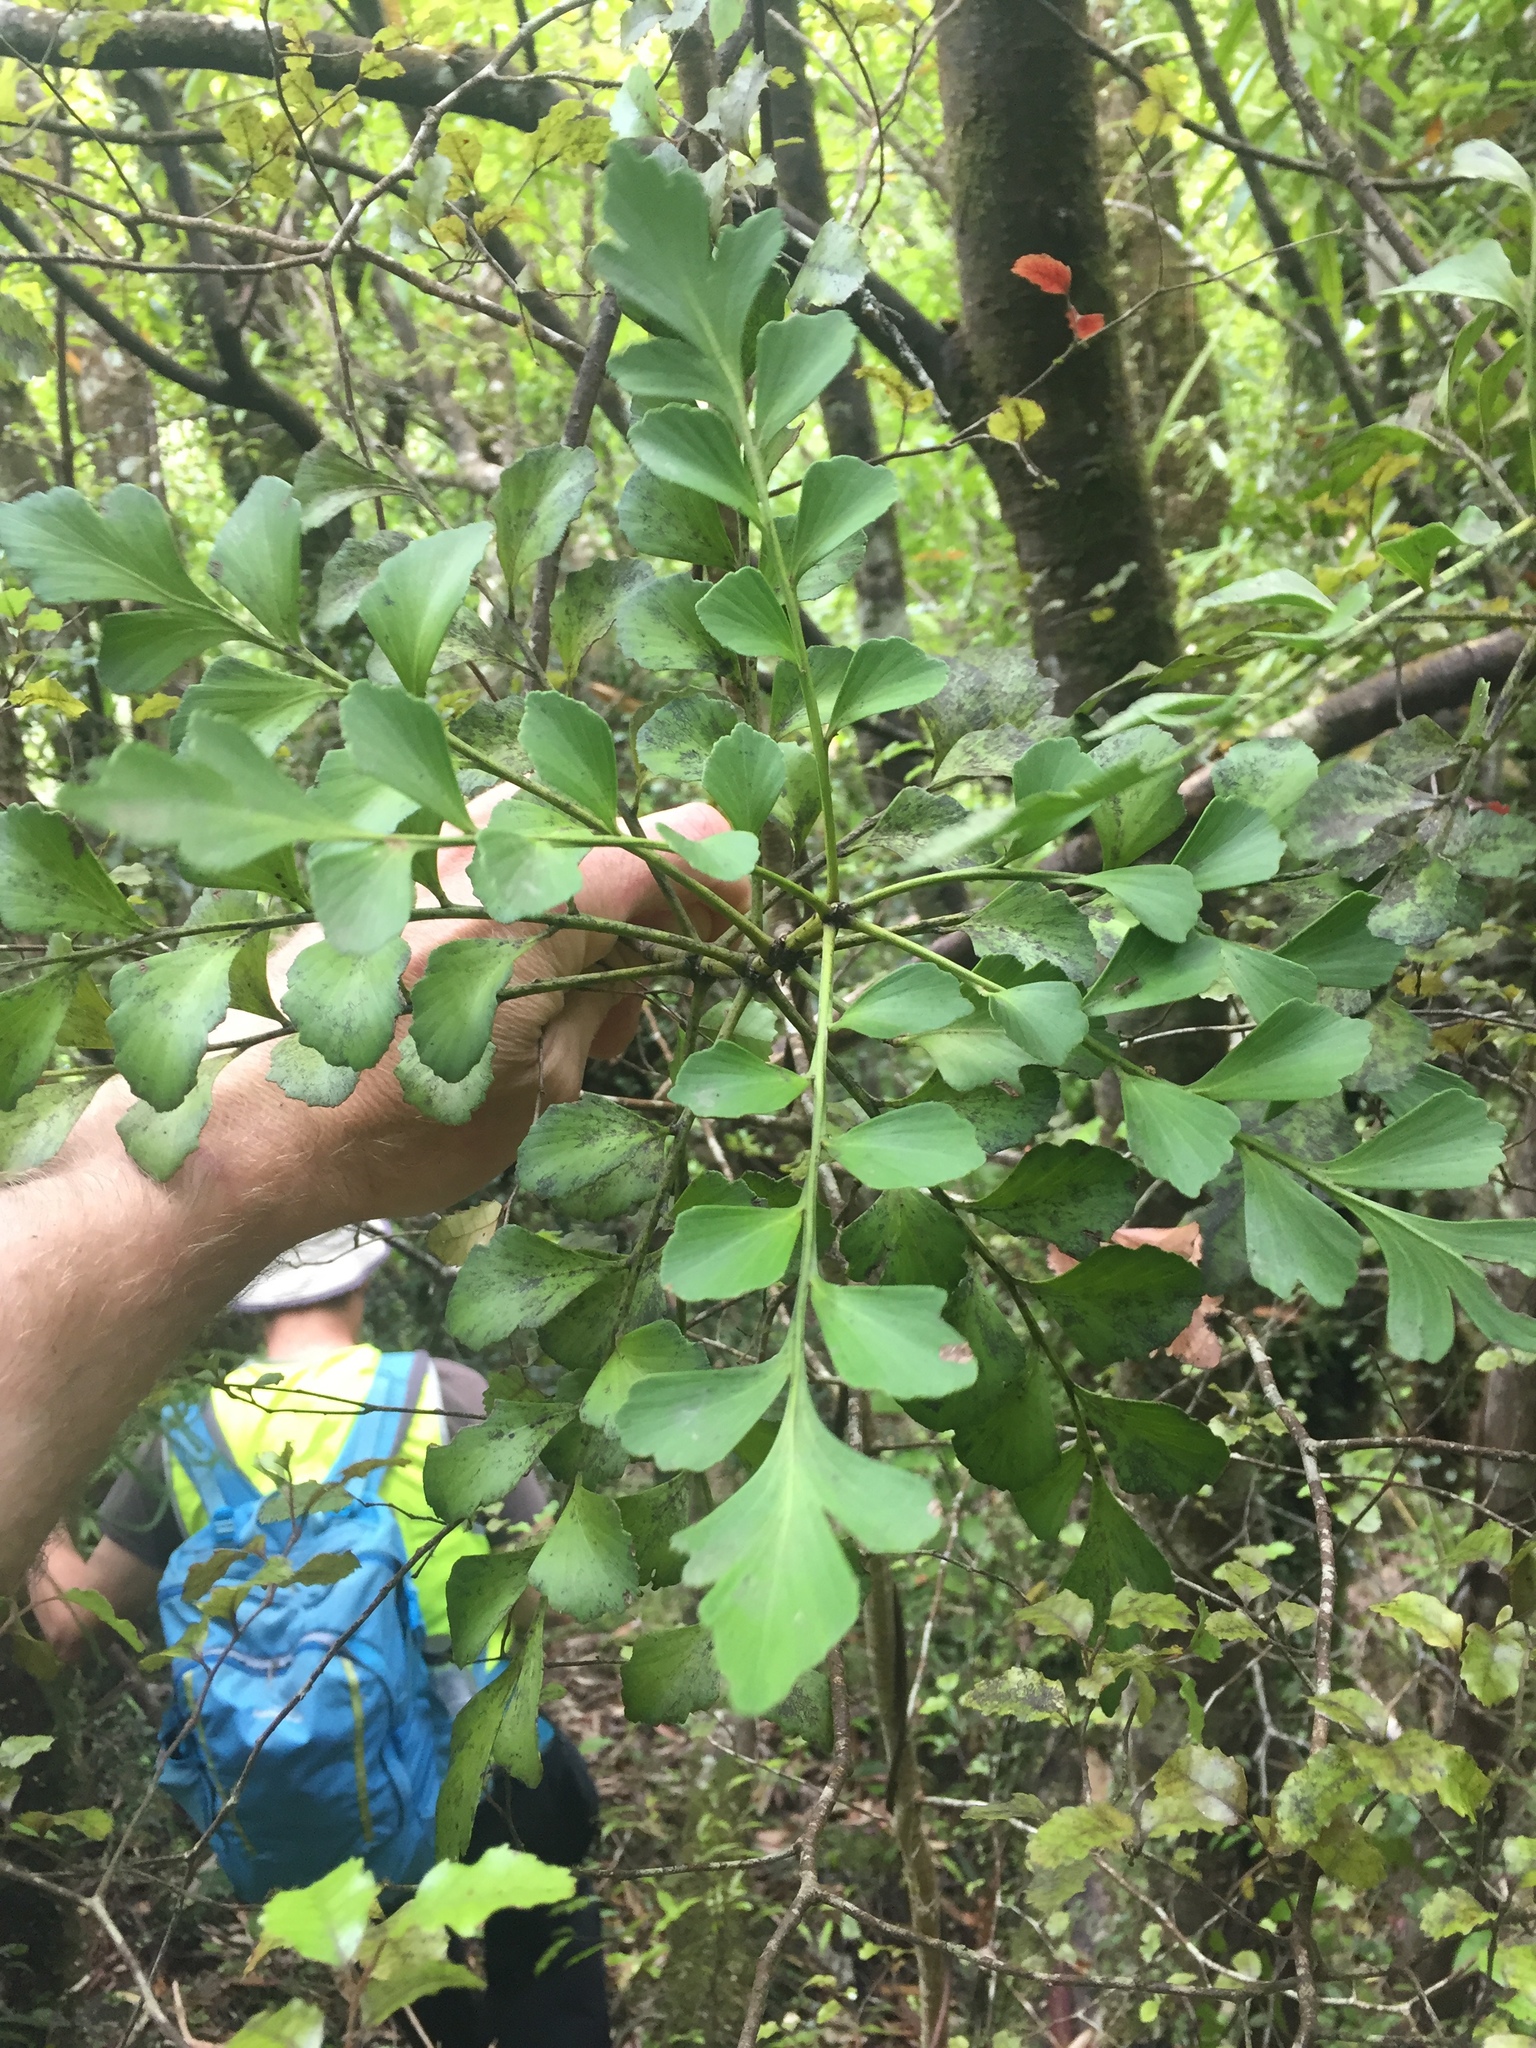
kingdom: Plantae
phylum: Tracheophyta
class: Pinopsida
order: Pinales
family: Phyllocladaceae
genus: Phyllocladus
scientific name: Phyllocladus toatoa
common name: Celery-top pine
